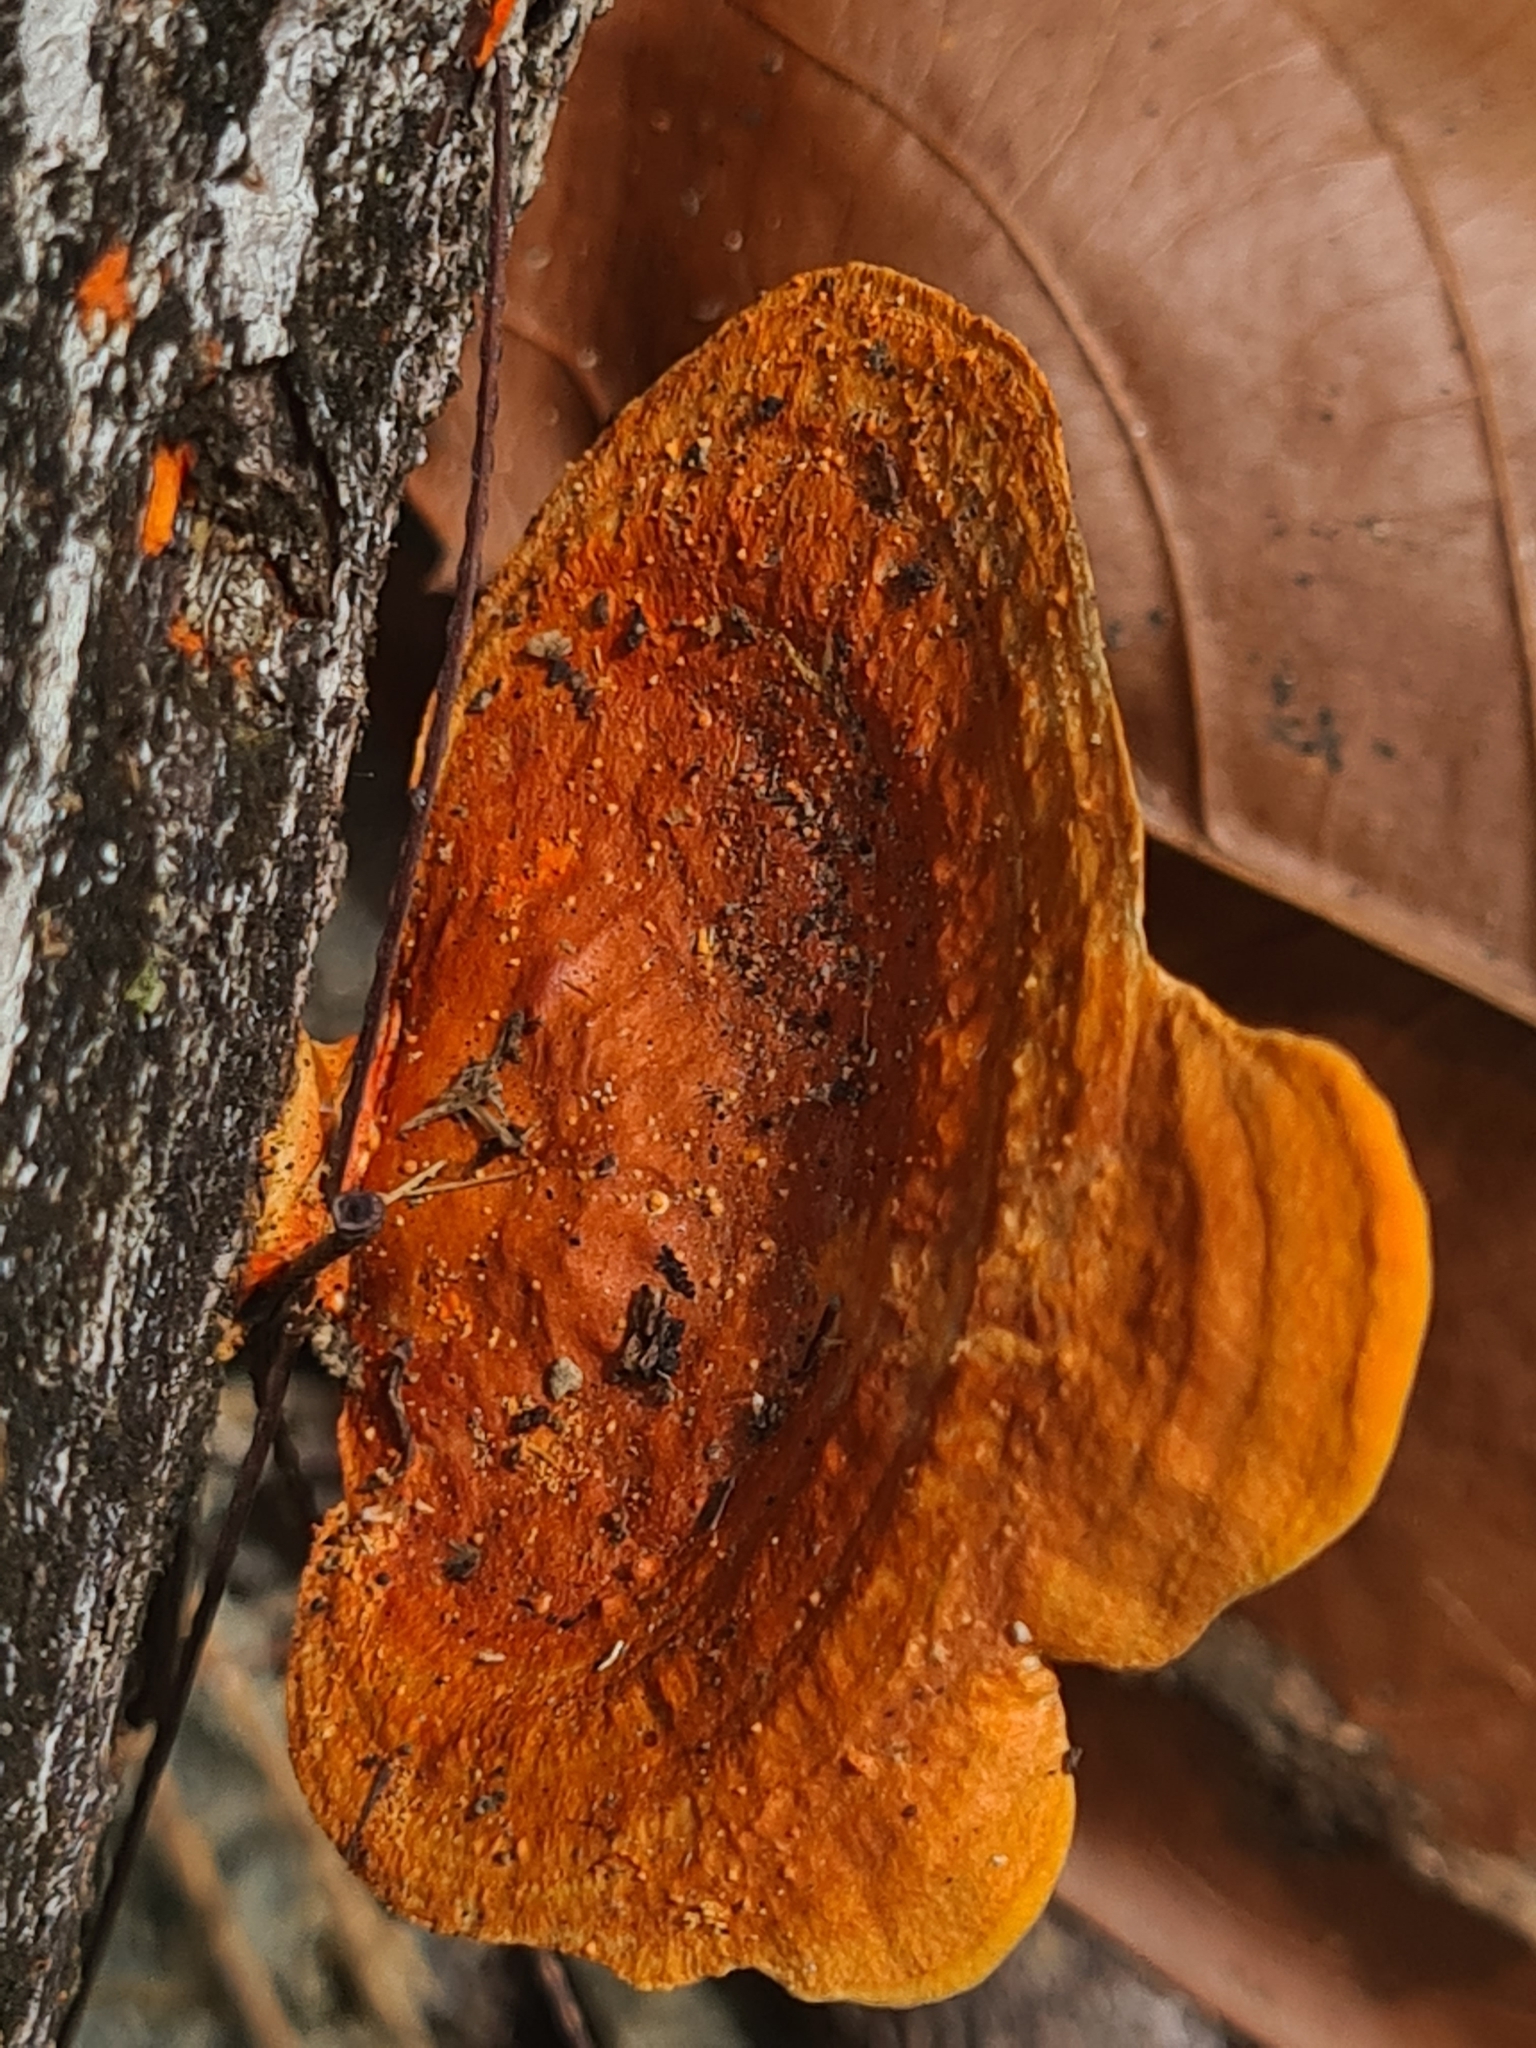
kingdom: Fungi
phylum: Basidiomycota
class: Agaricomycetes
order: Polyporales
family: Polyporaceae
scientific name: Polyporaceae
